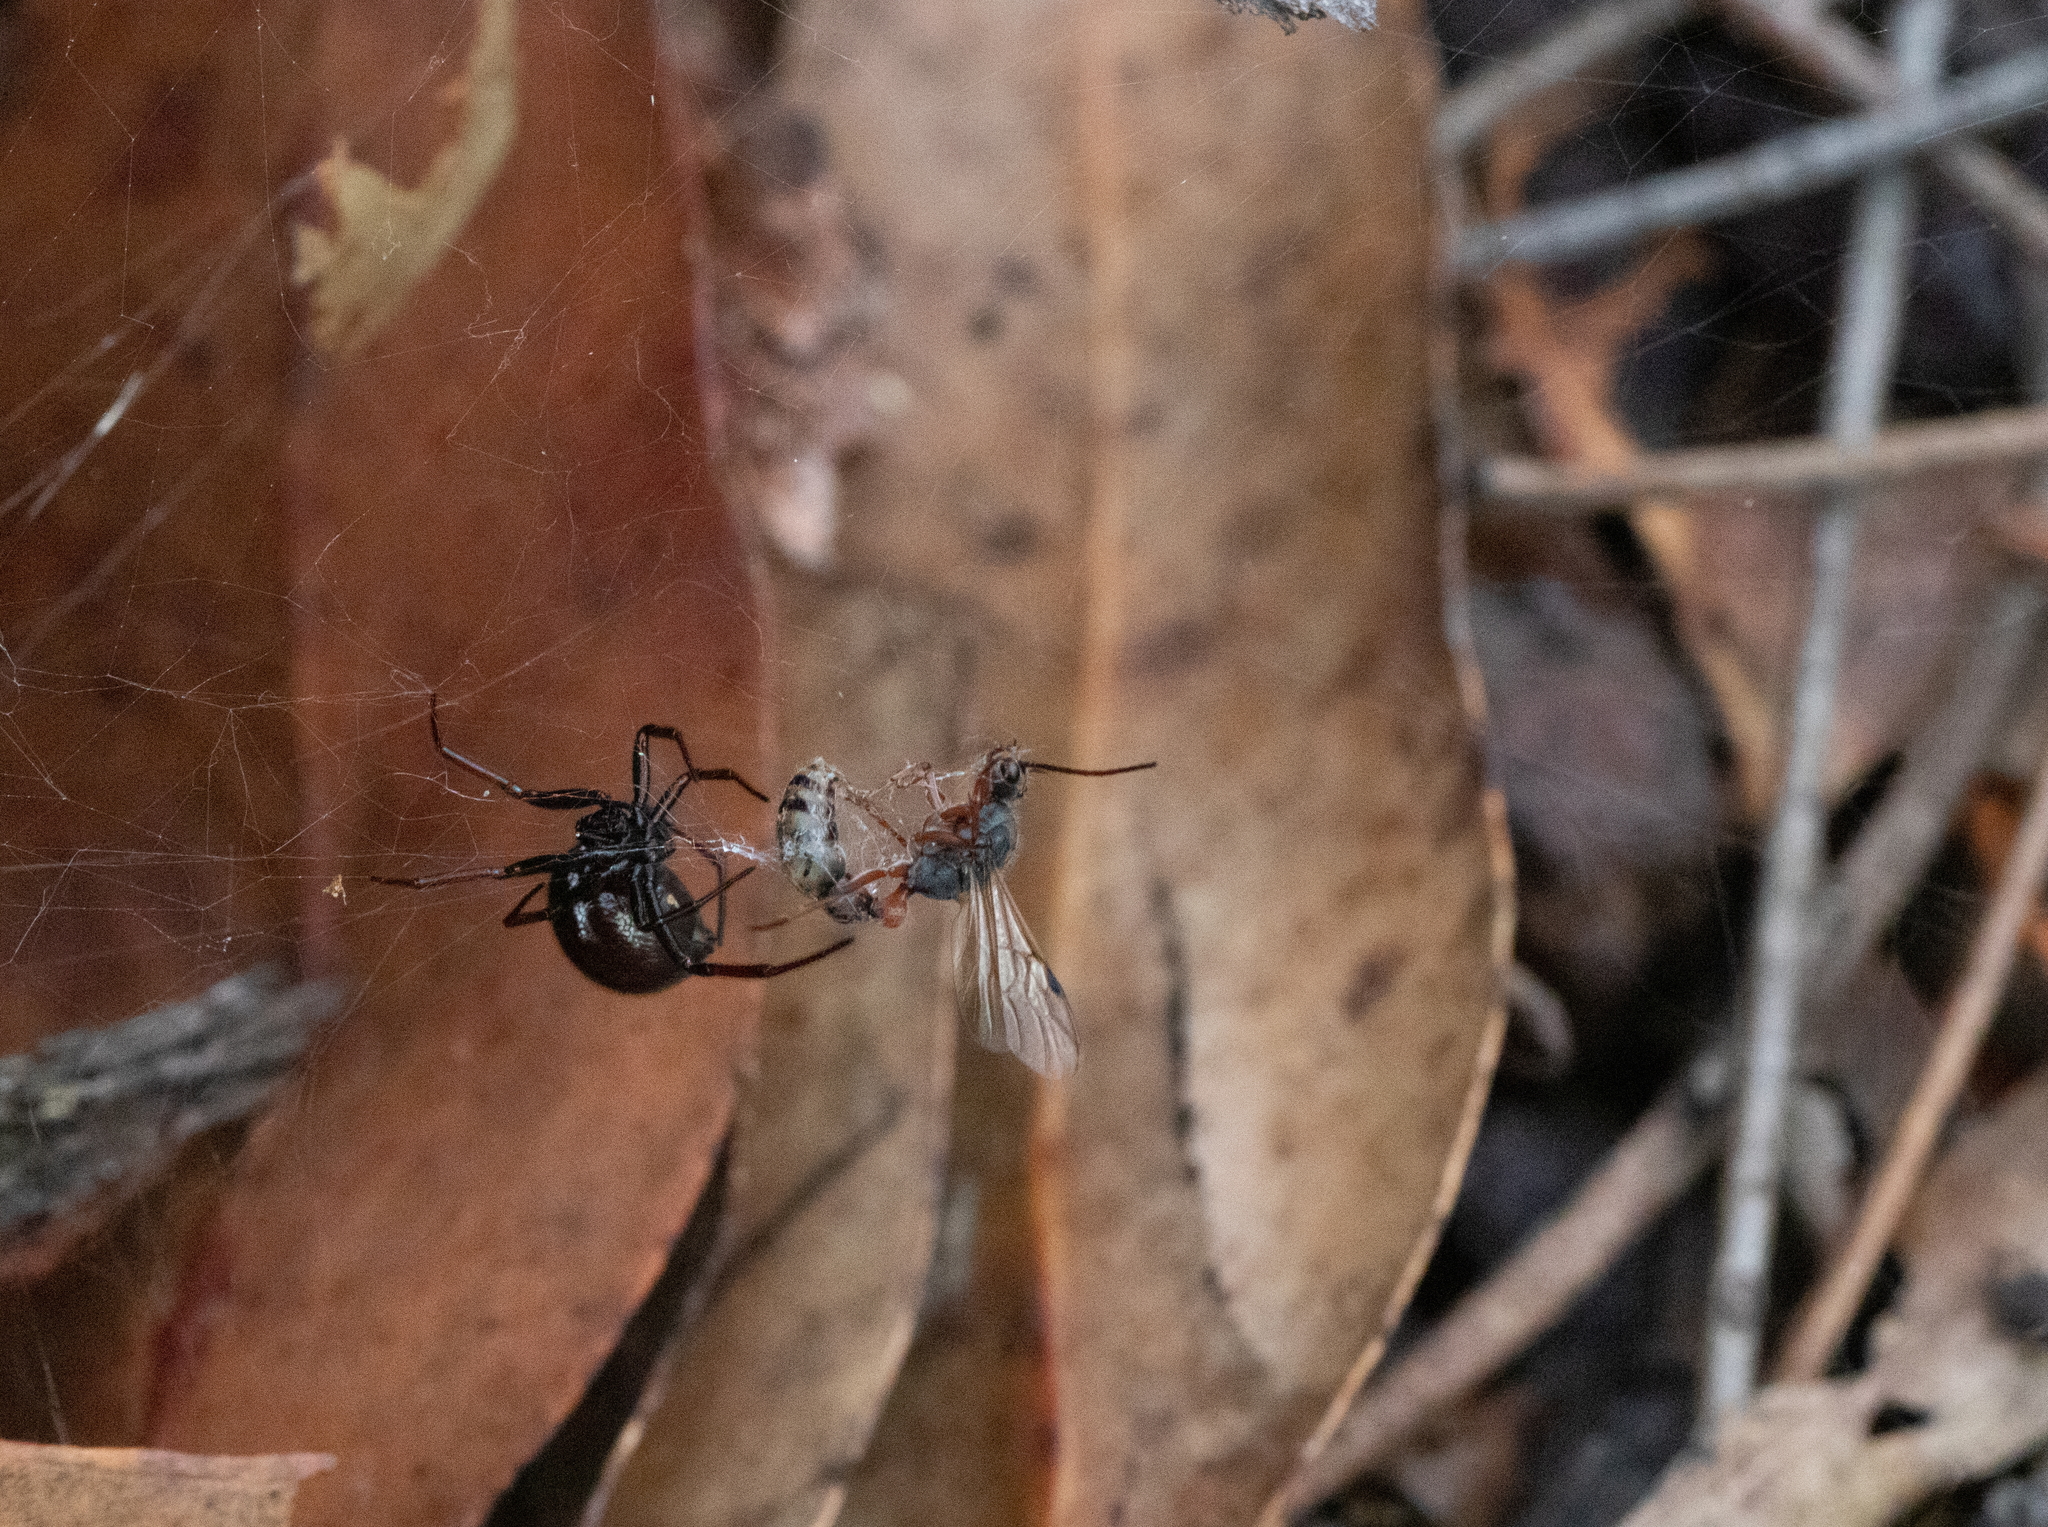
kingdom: Animalia
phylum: Arthropoda
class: Insecta
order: Hymenoptera
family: Formicidae
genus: Myrmecia
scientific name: Myrmecia chrysogaster
